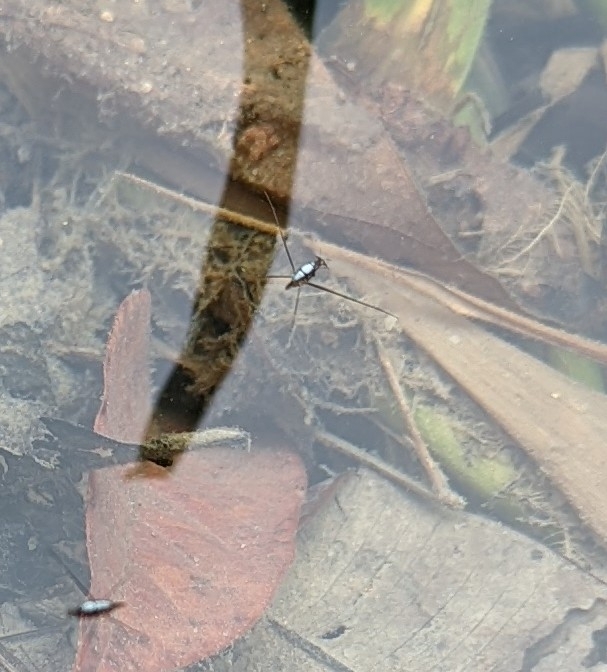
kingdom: Animalia
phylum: Arthropoda
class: Insecta
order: Hemiptera
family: Gerridae
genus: Rhagadotarsus
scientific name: Rhagadotarsus kraepelini
